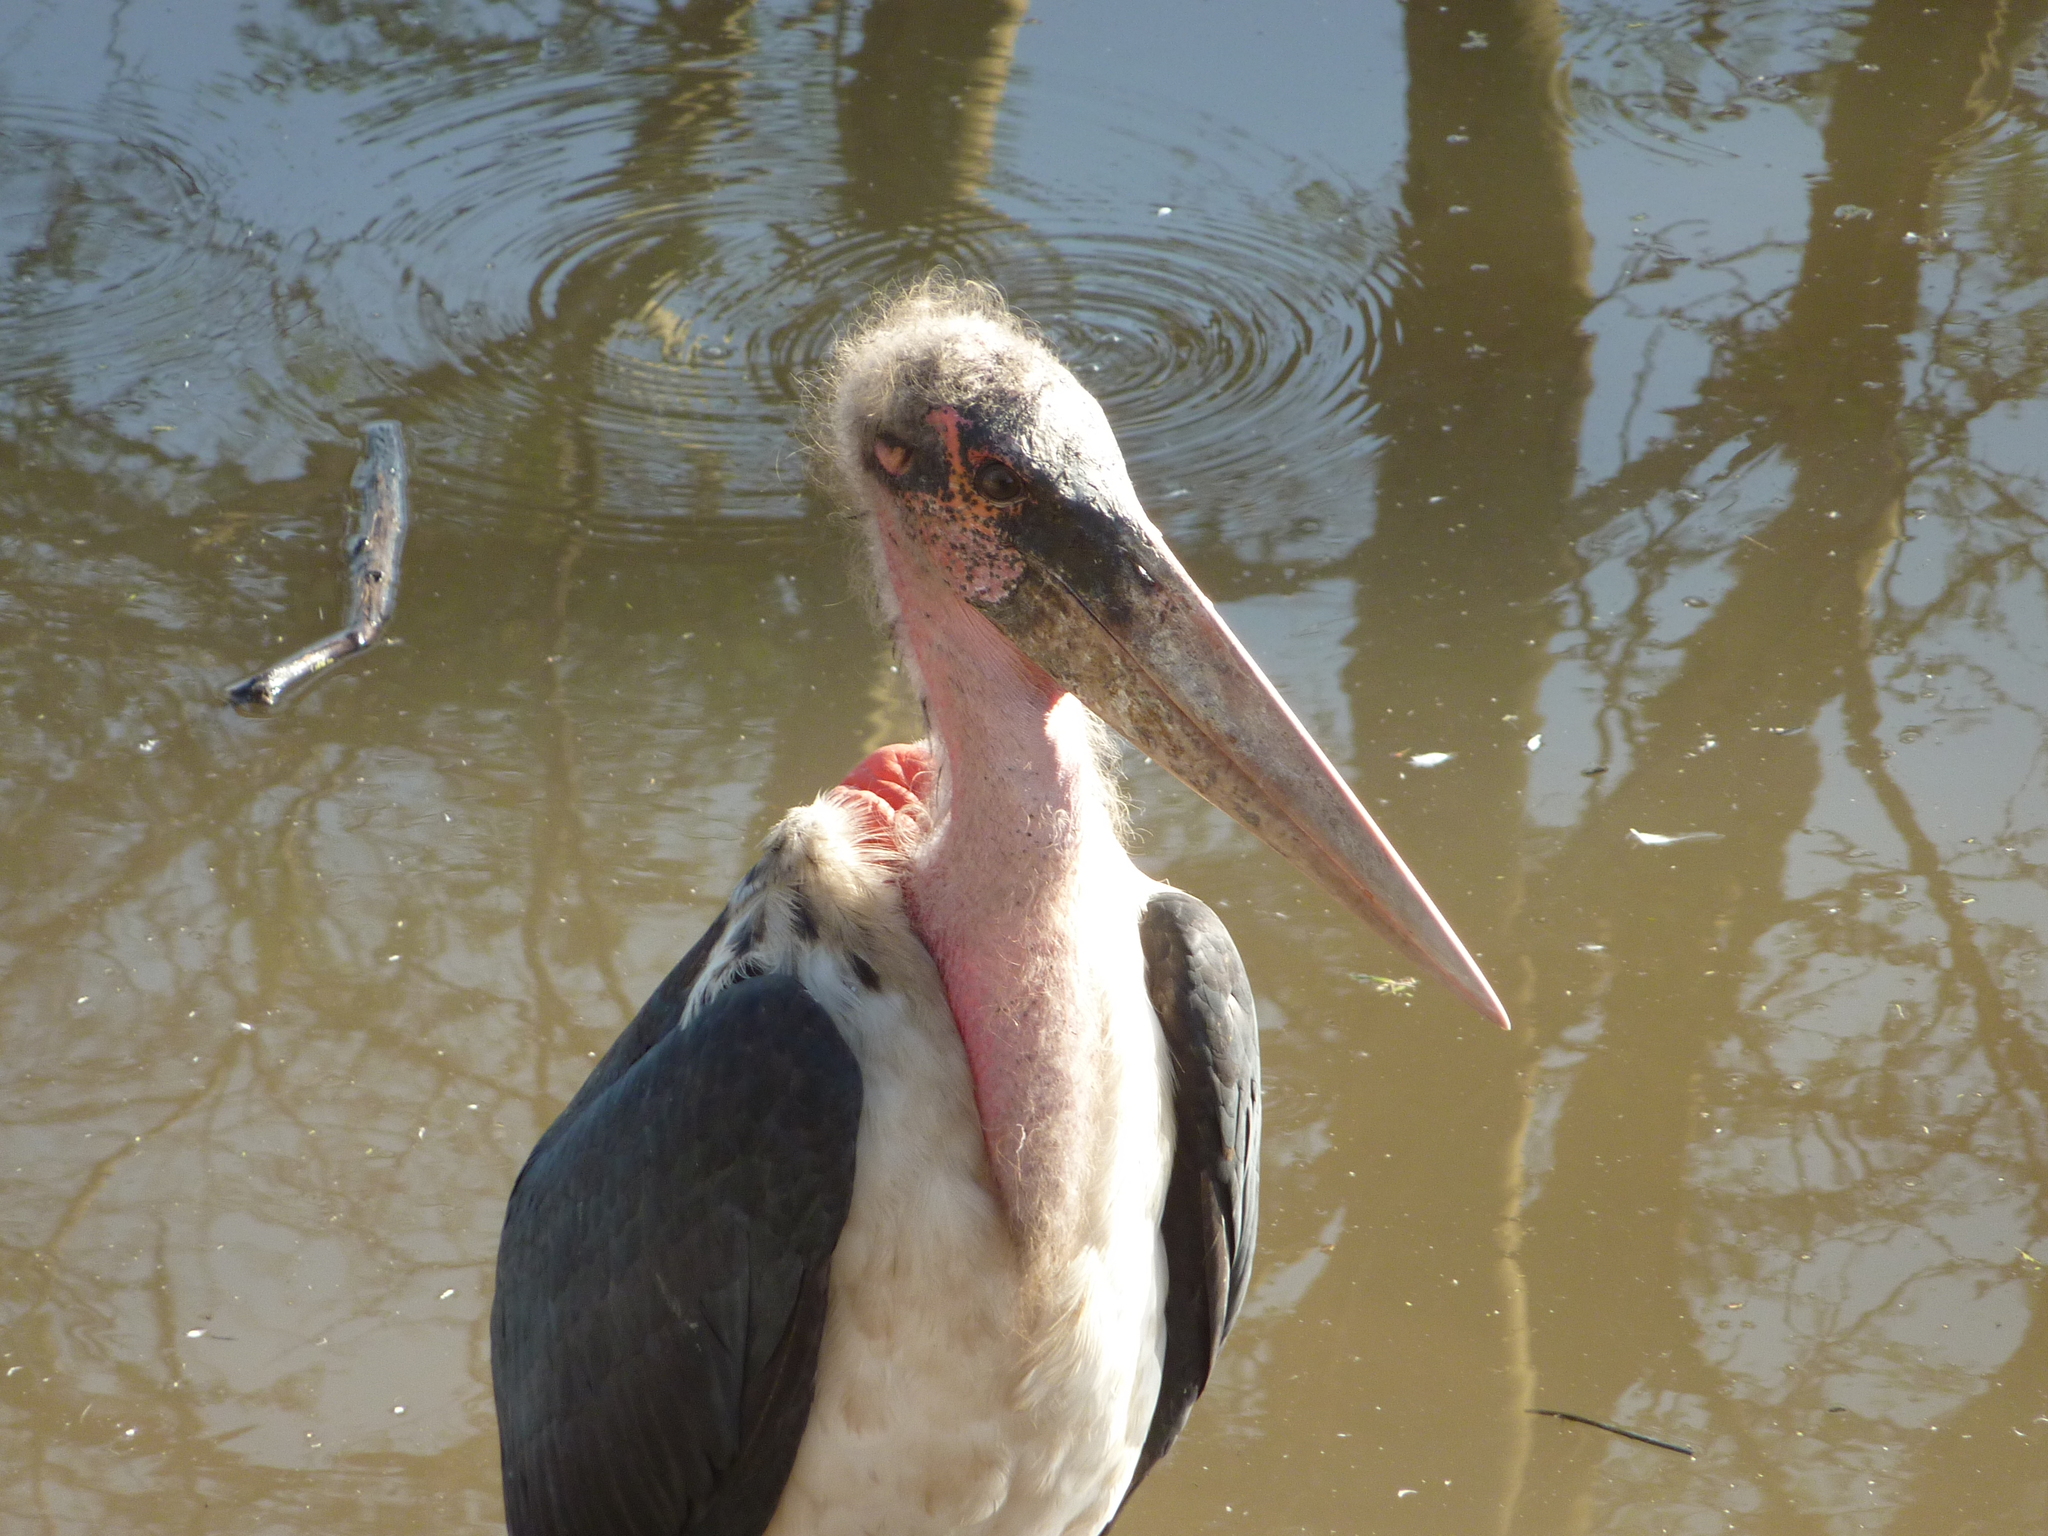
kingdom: Animalia
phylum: Chordata
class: Aves
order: Ciconiiformes
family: Ciconiidae
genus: Leptoptilos
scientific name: Leptoptilos crumenifer
